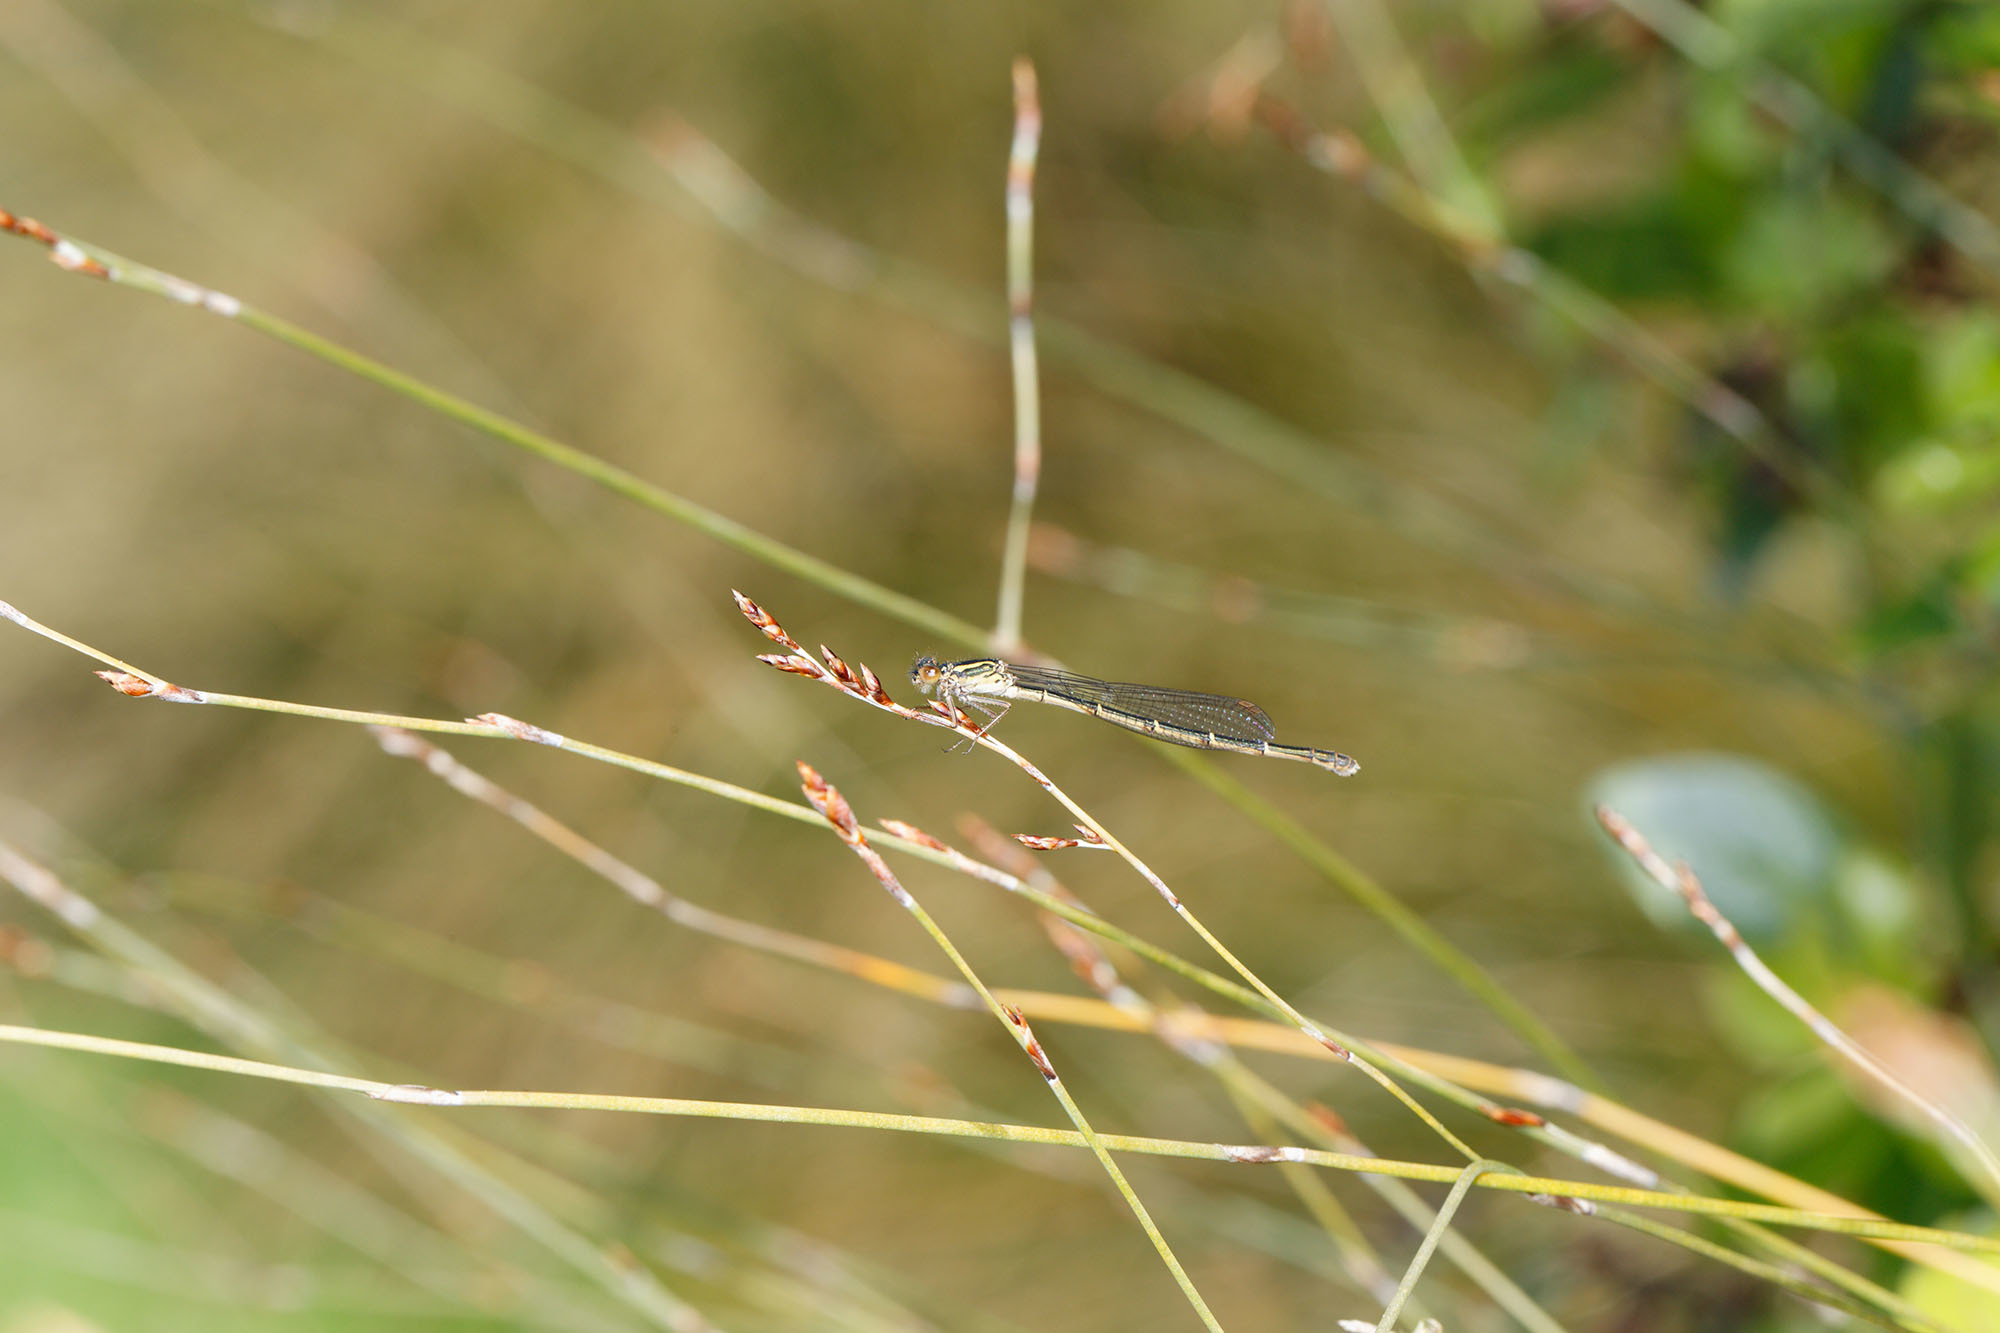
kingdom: Animalia
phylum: Arthropoda
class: Insecta
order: Odonata
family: Coenagrionidae
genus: Xanthocnemis
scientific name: Xanthocnemis zealandica
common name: Common redcoat damselfly
